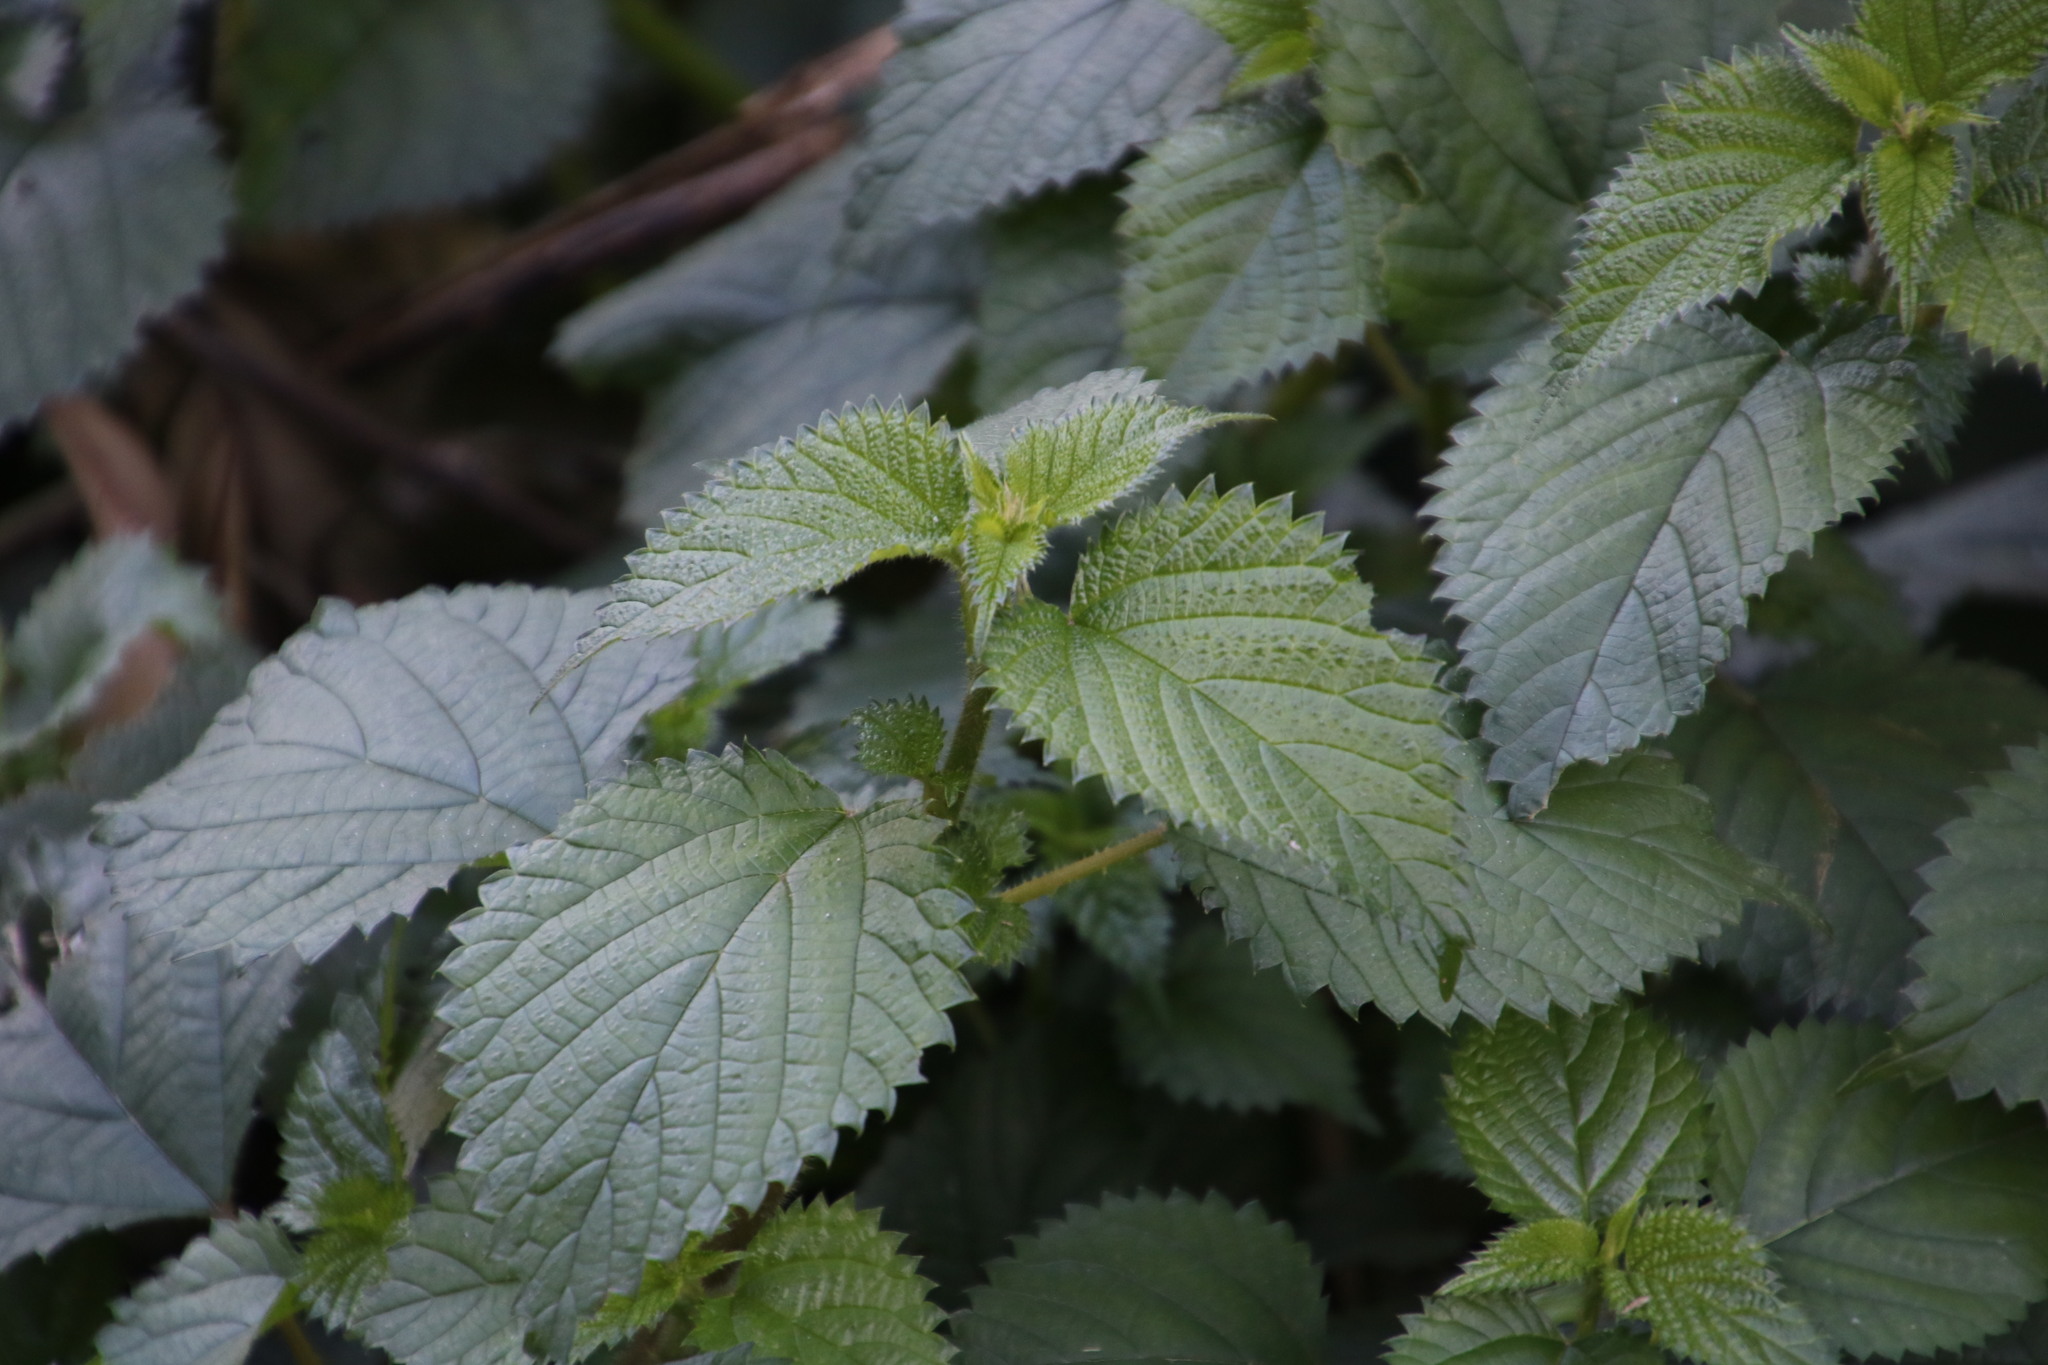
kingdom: Plantae
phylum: Tracheophyta
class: Magnoliopsida
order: Rosales
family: Urticaceae
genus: Laportea
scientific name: Laportea alatipes
